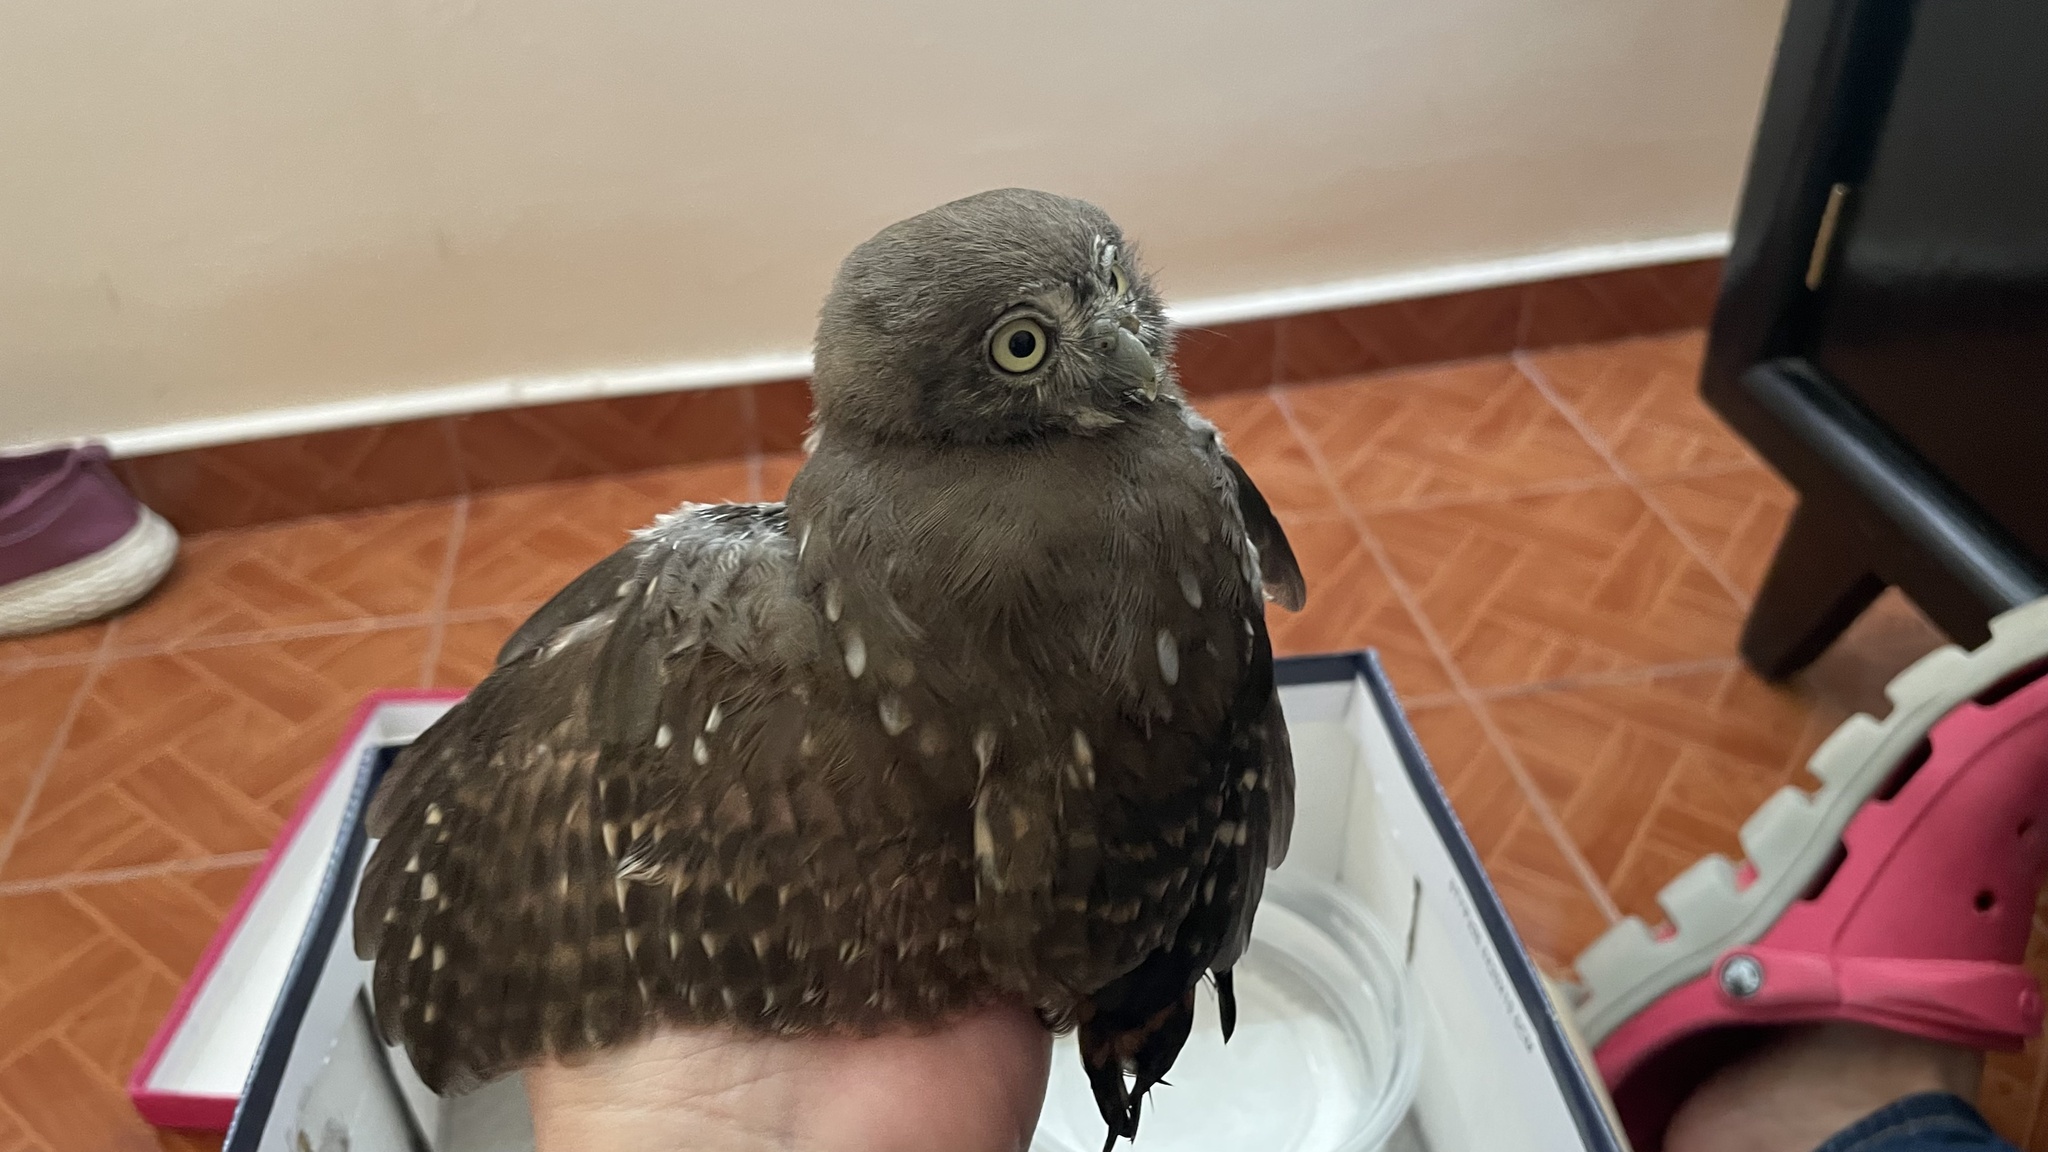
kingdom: Animalia
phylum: Chordata
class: Aves
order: Strigiformes
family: Strigidae
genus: Glaucidium
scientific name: Glaucidium brasilianum
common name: Ferruginous pygmy-owl
